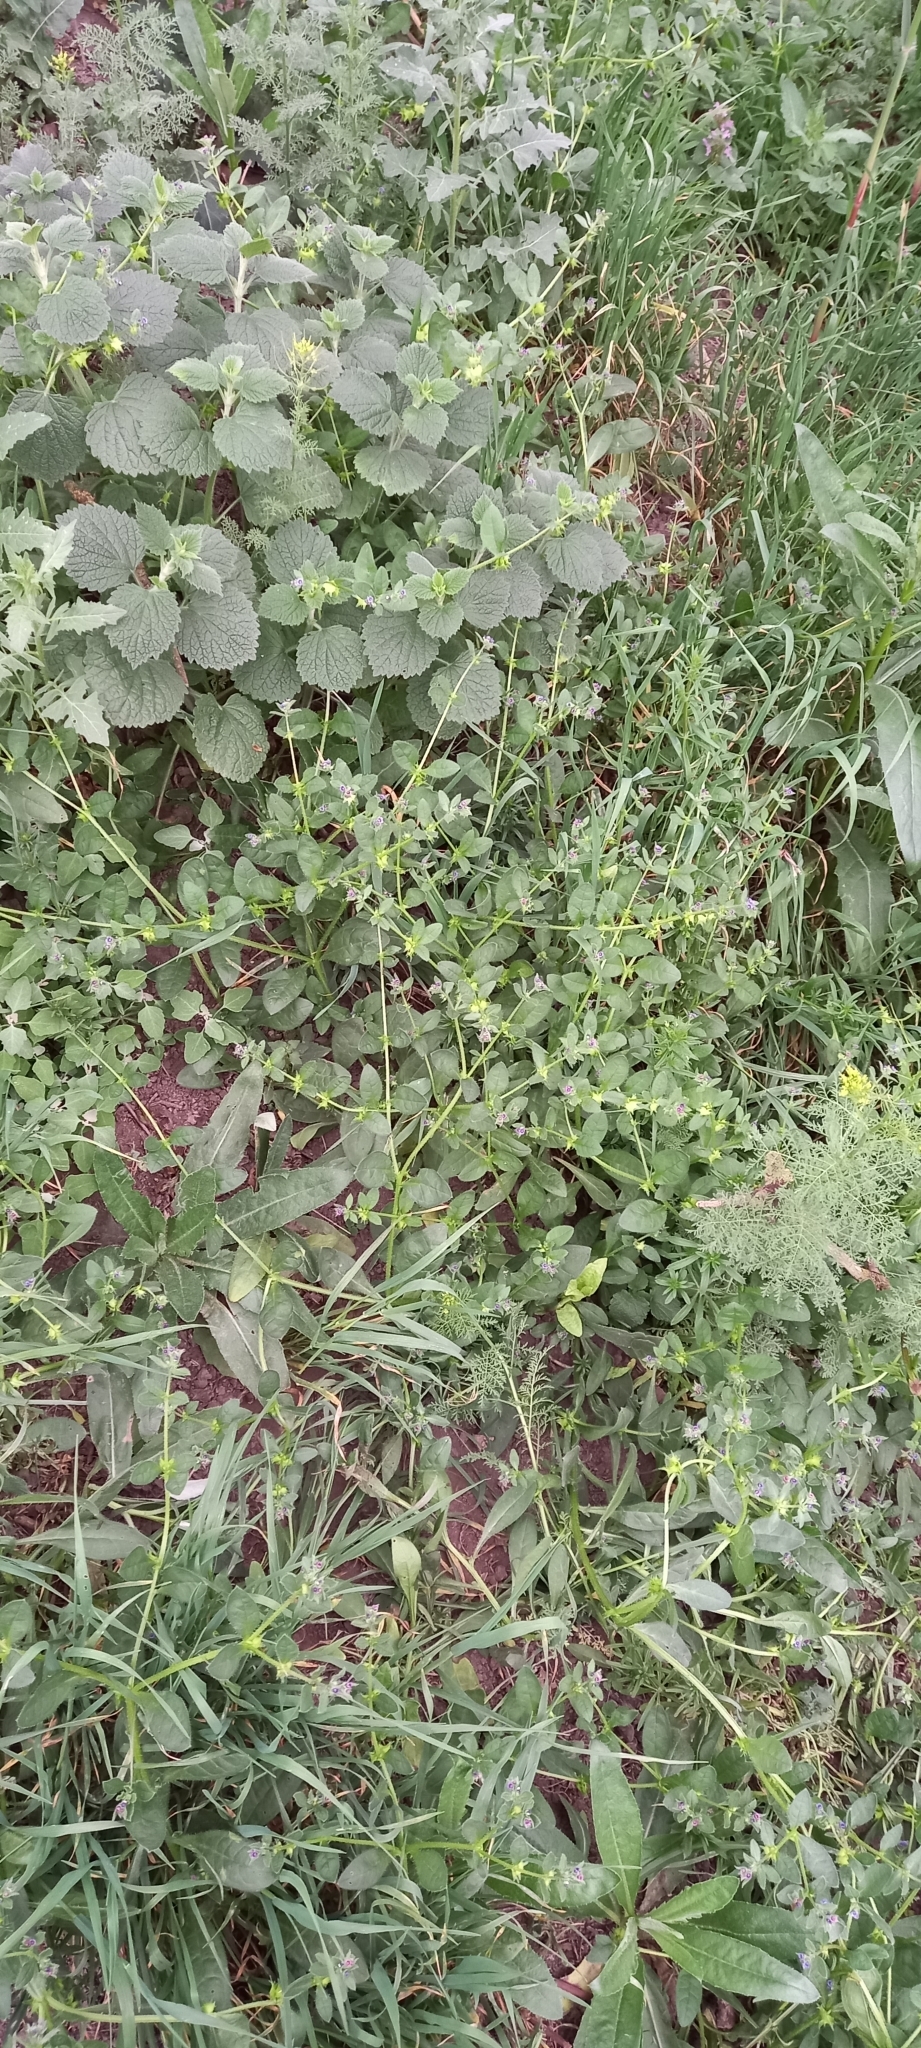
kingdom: Plantae
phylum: Tracheophyta
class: Magnoliopsida
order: Boraginales
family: Boraginaceae
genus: Asperugo
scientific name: Asperugo procumbens
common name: Madwort
